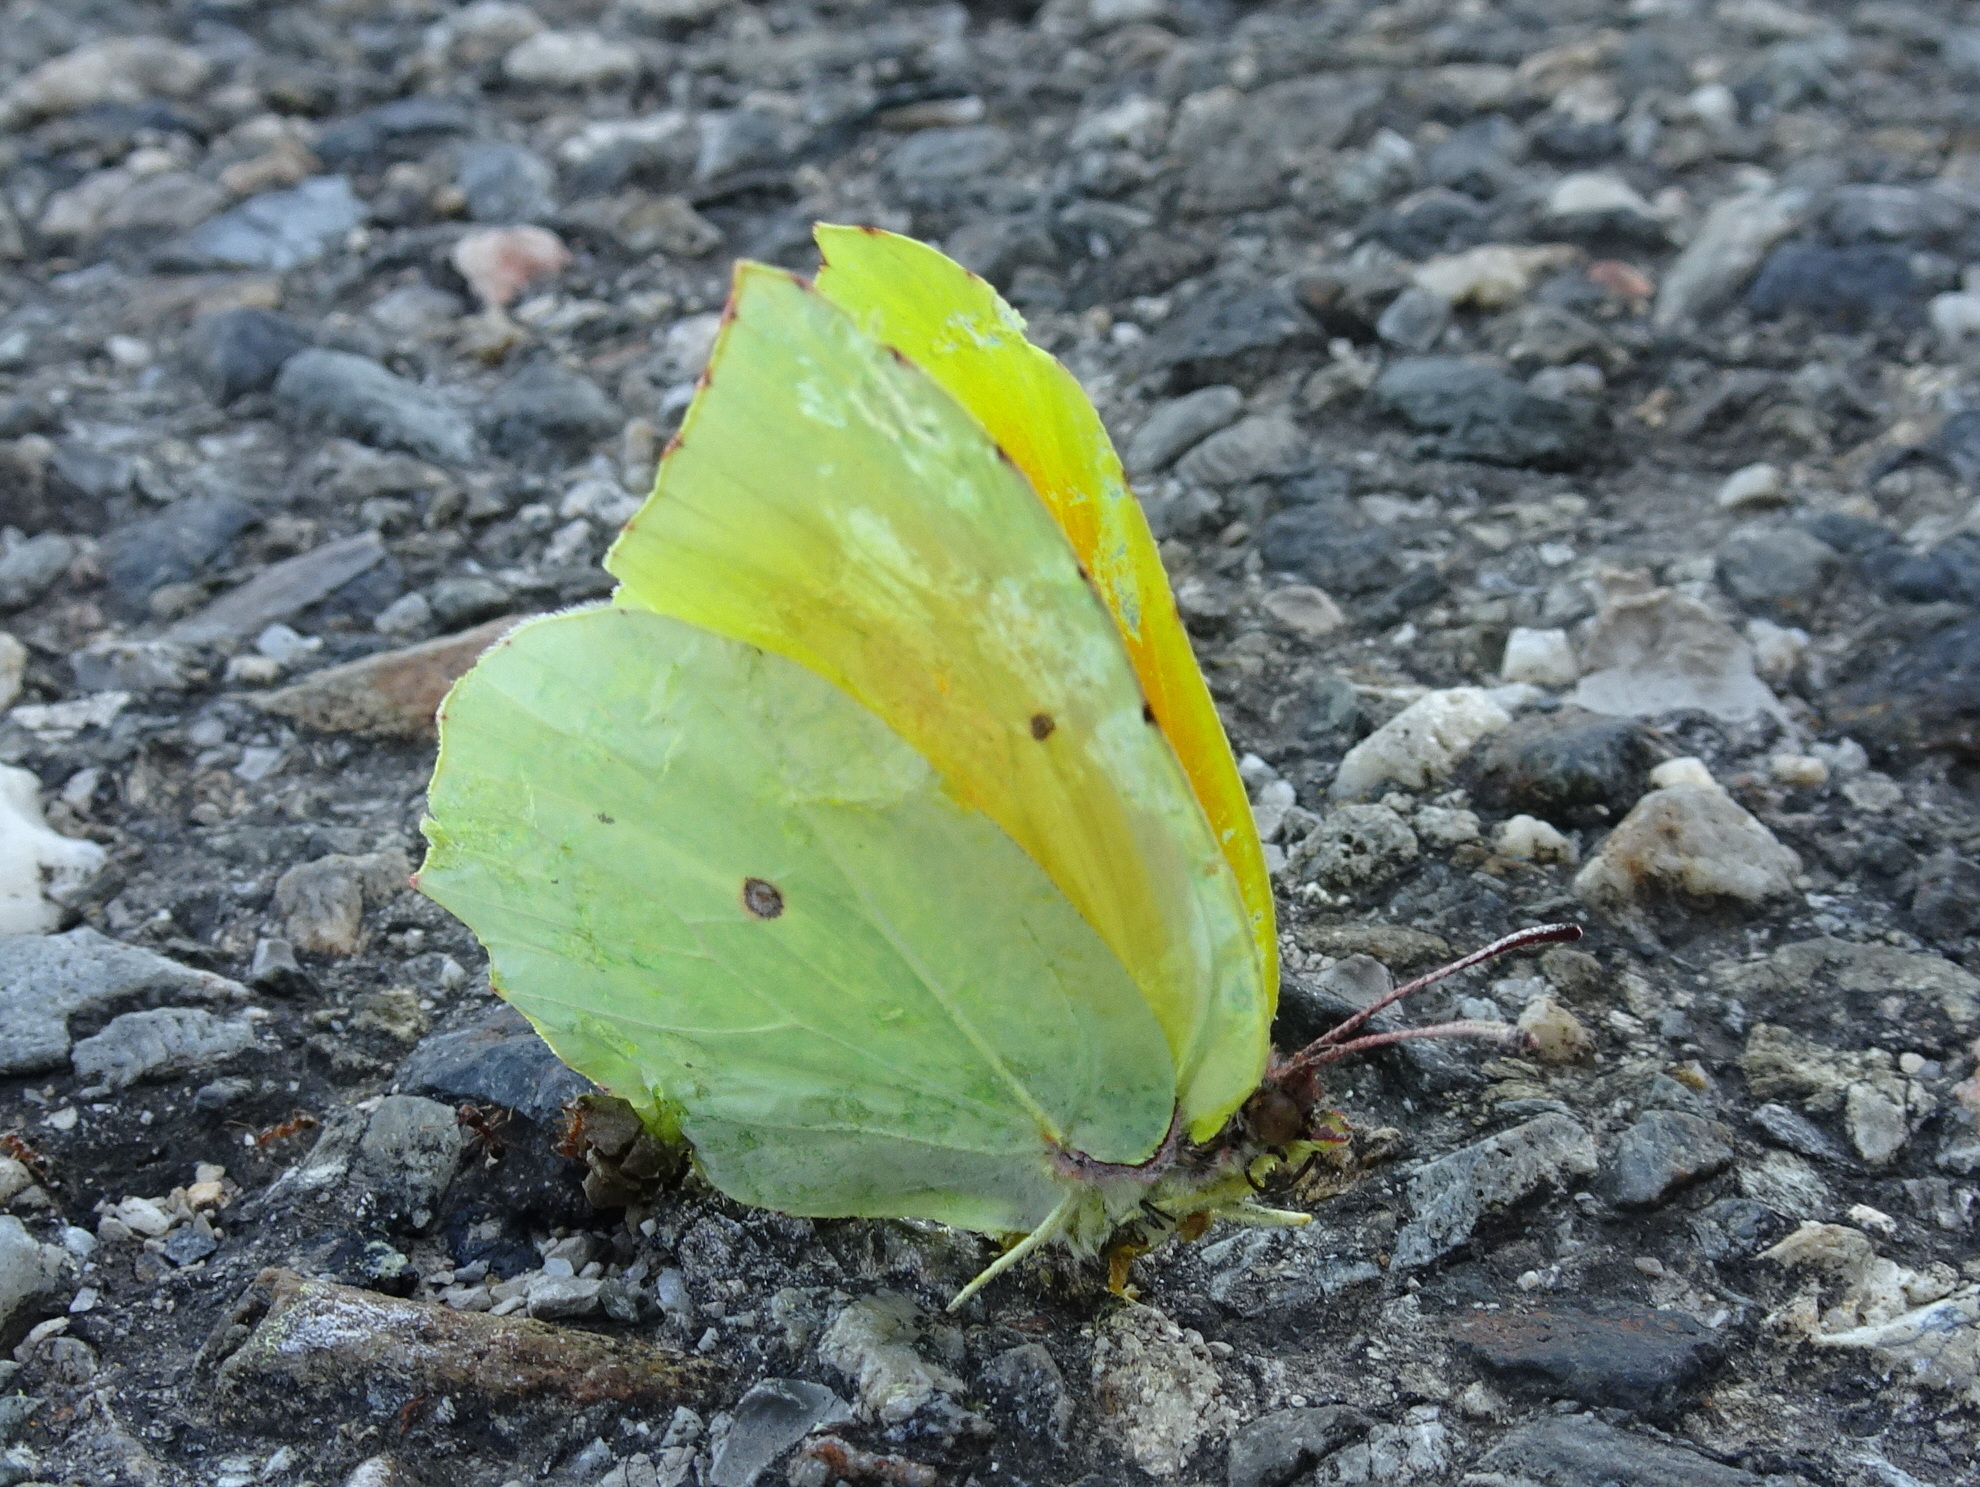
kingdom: Animalia
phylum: Arthropoda
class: Insecta
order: Lepidoptera
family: Pieridae
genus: Gonepteryx
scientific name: Gonepteryx cleopatra
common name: Cleopatra
